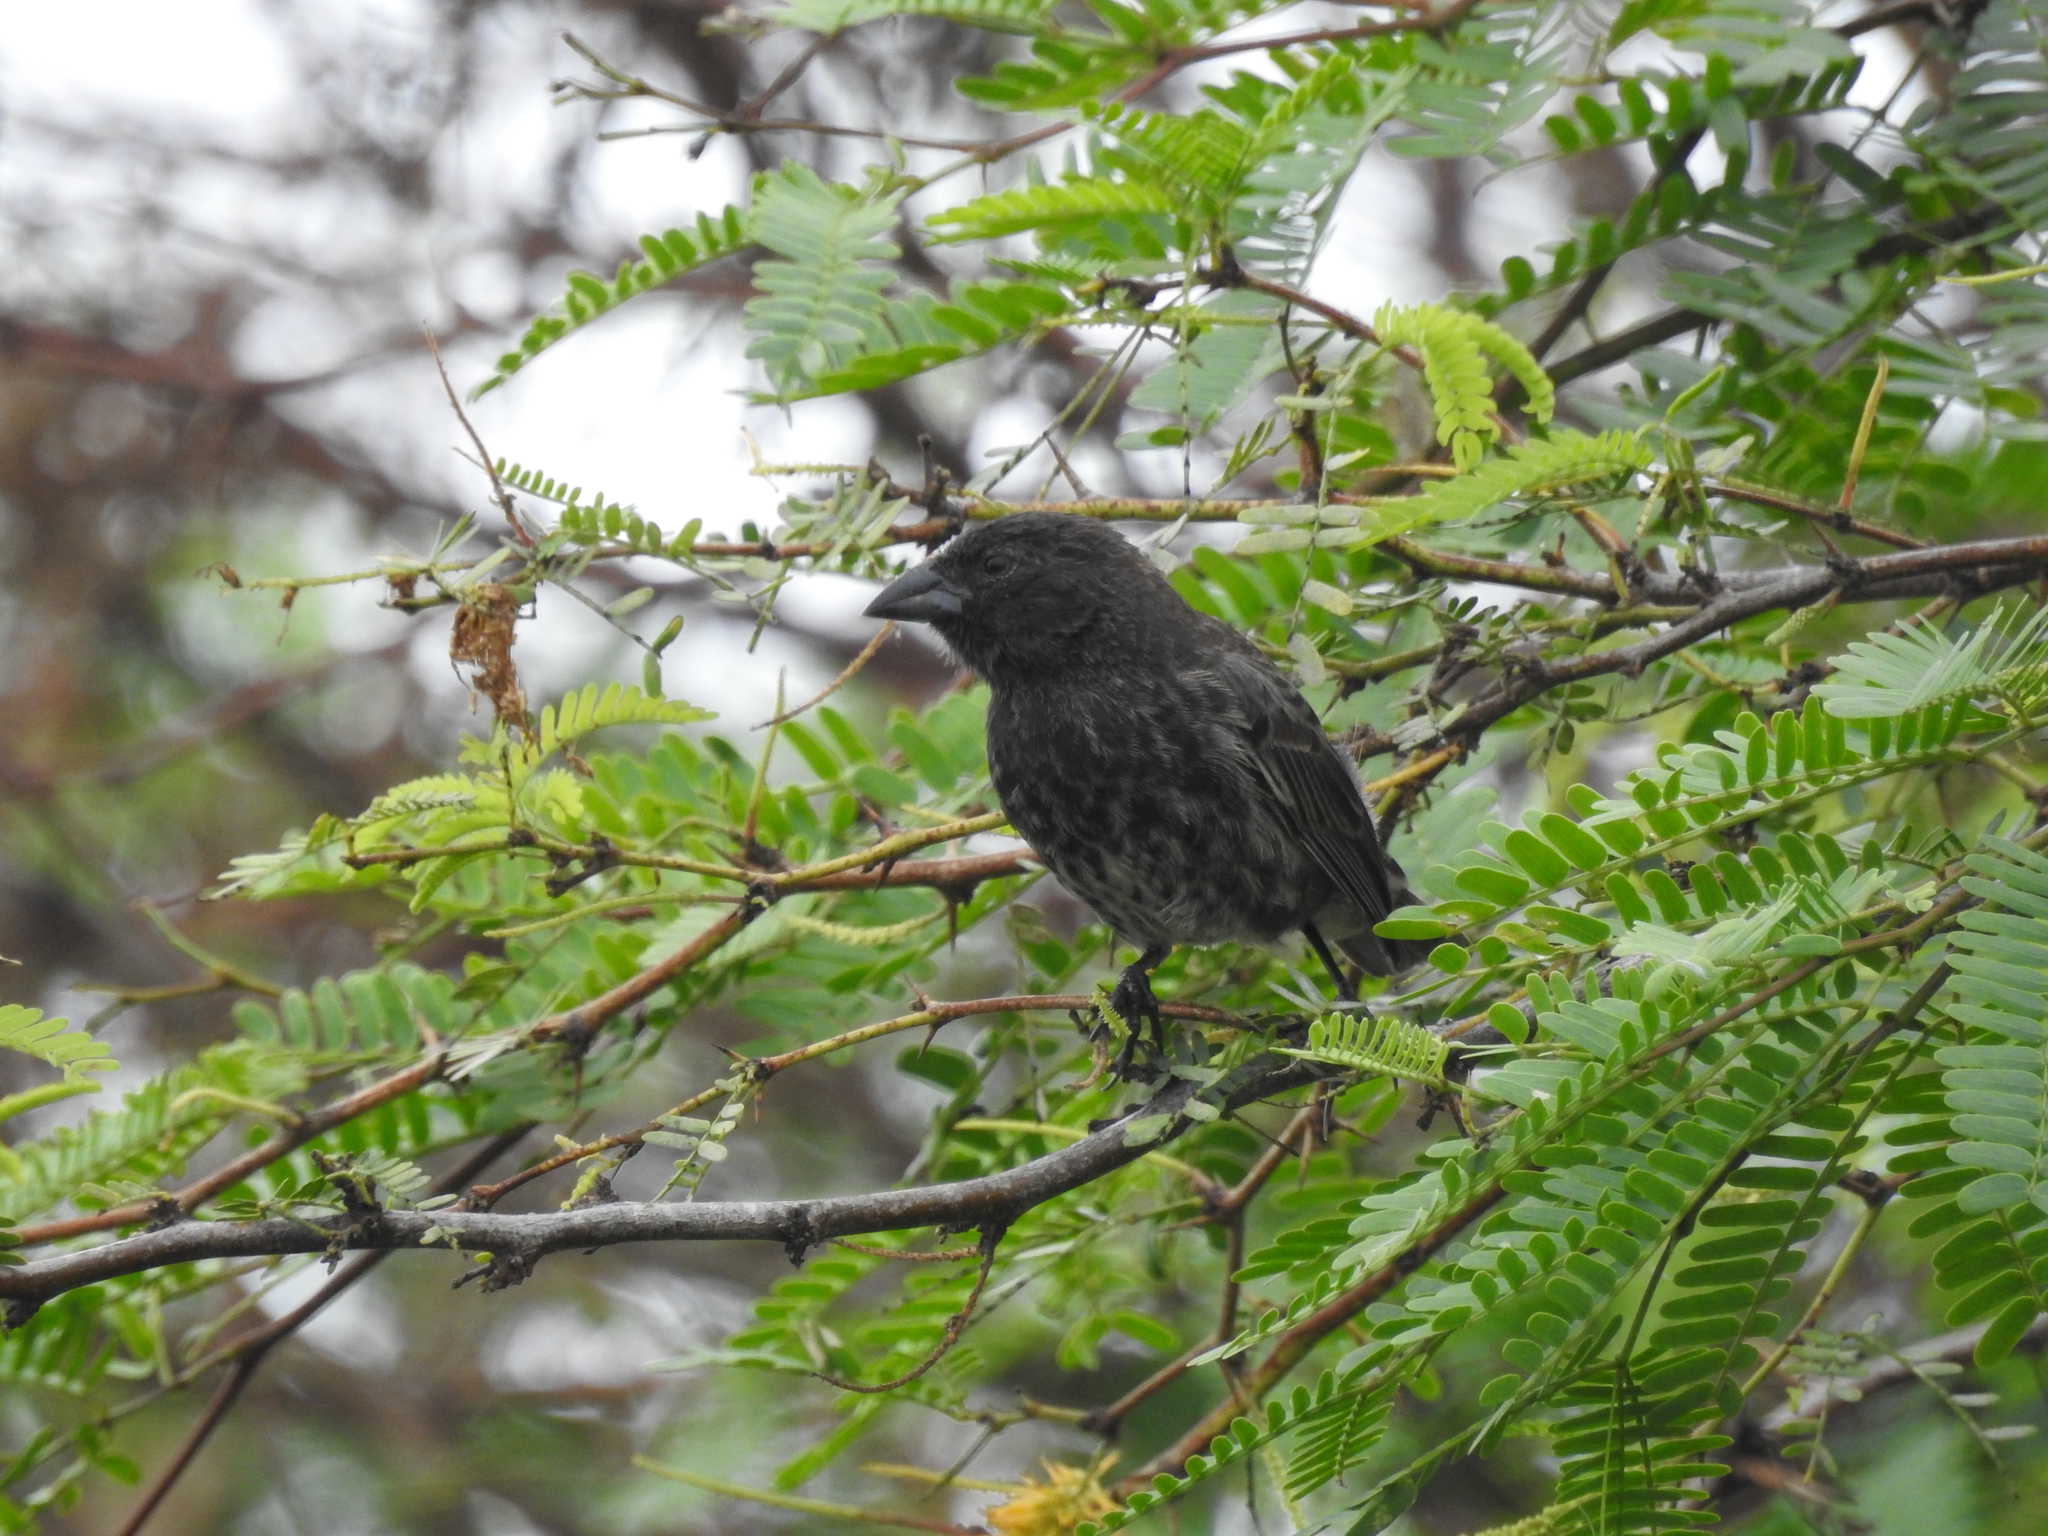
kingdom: Animalia
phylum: Chordata
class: Aves
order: Passeriformes
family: Thraupidae
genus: Geospiza
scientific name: Geospiza scandens
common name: Common cactus-finch
